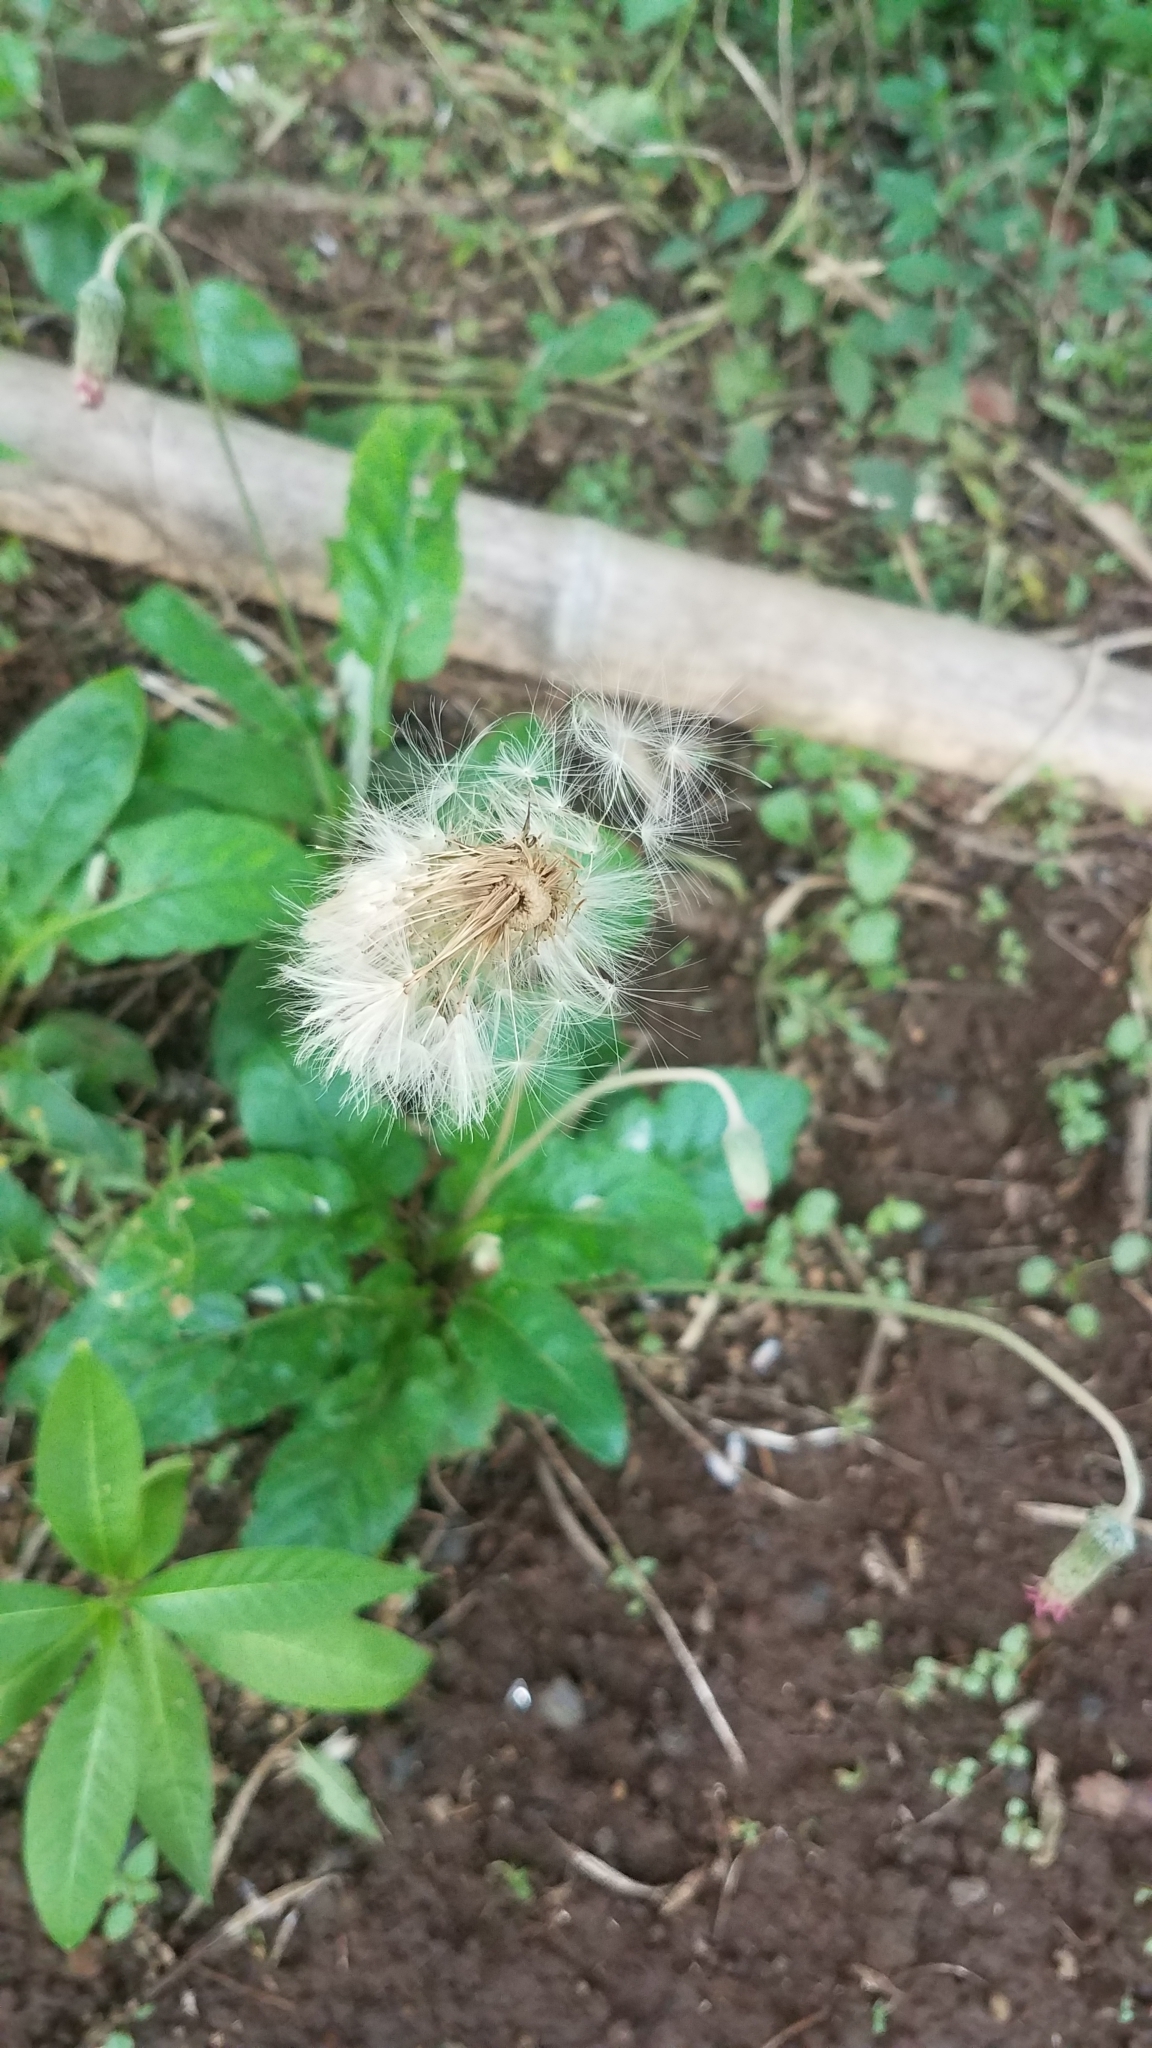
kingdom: Plantae
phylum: Tracheophyta
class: Magnoliopsida
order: Asterales
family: Asteraceae
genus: Chaptalia
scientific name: Chaptalia nutans
